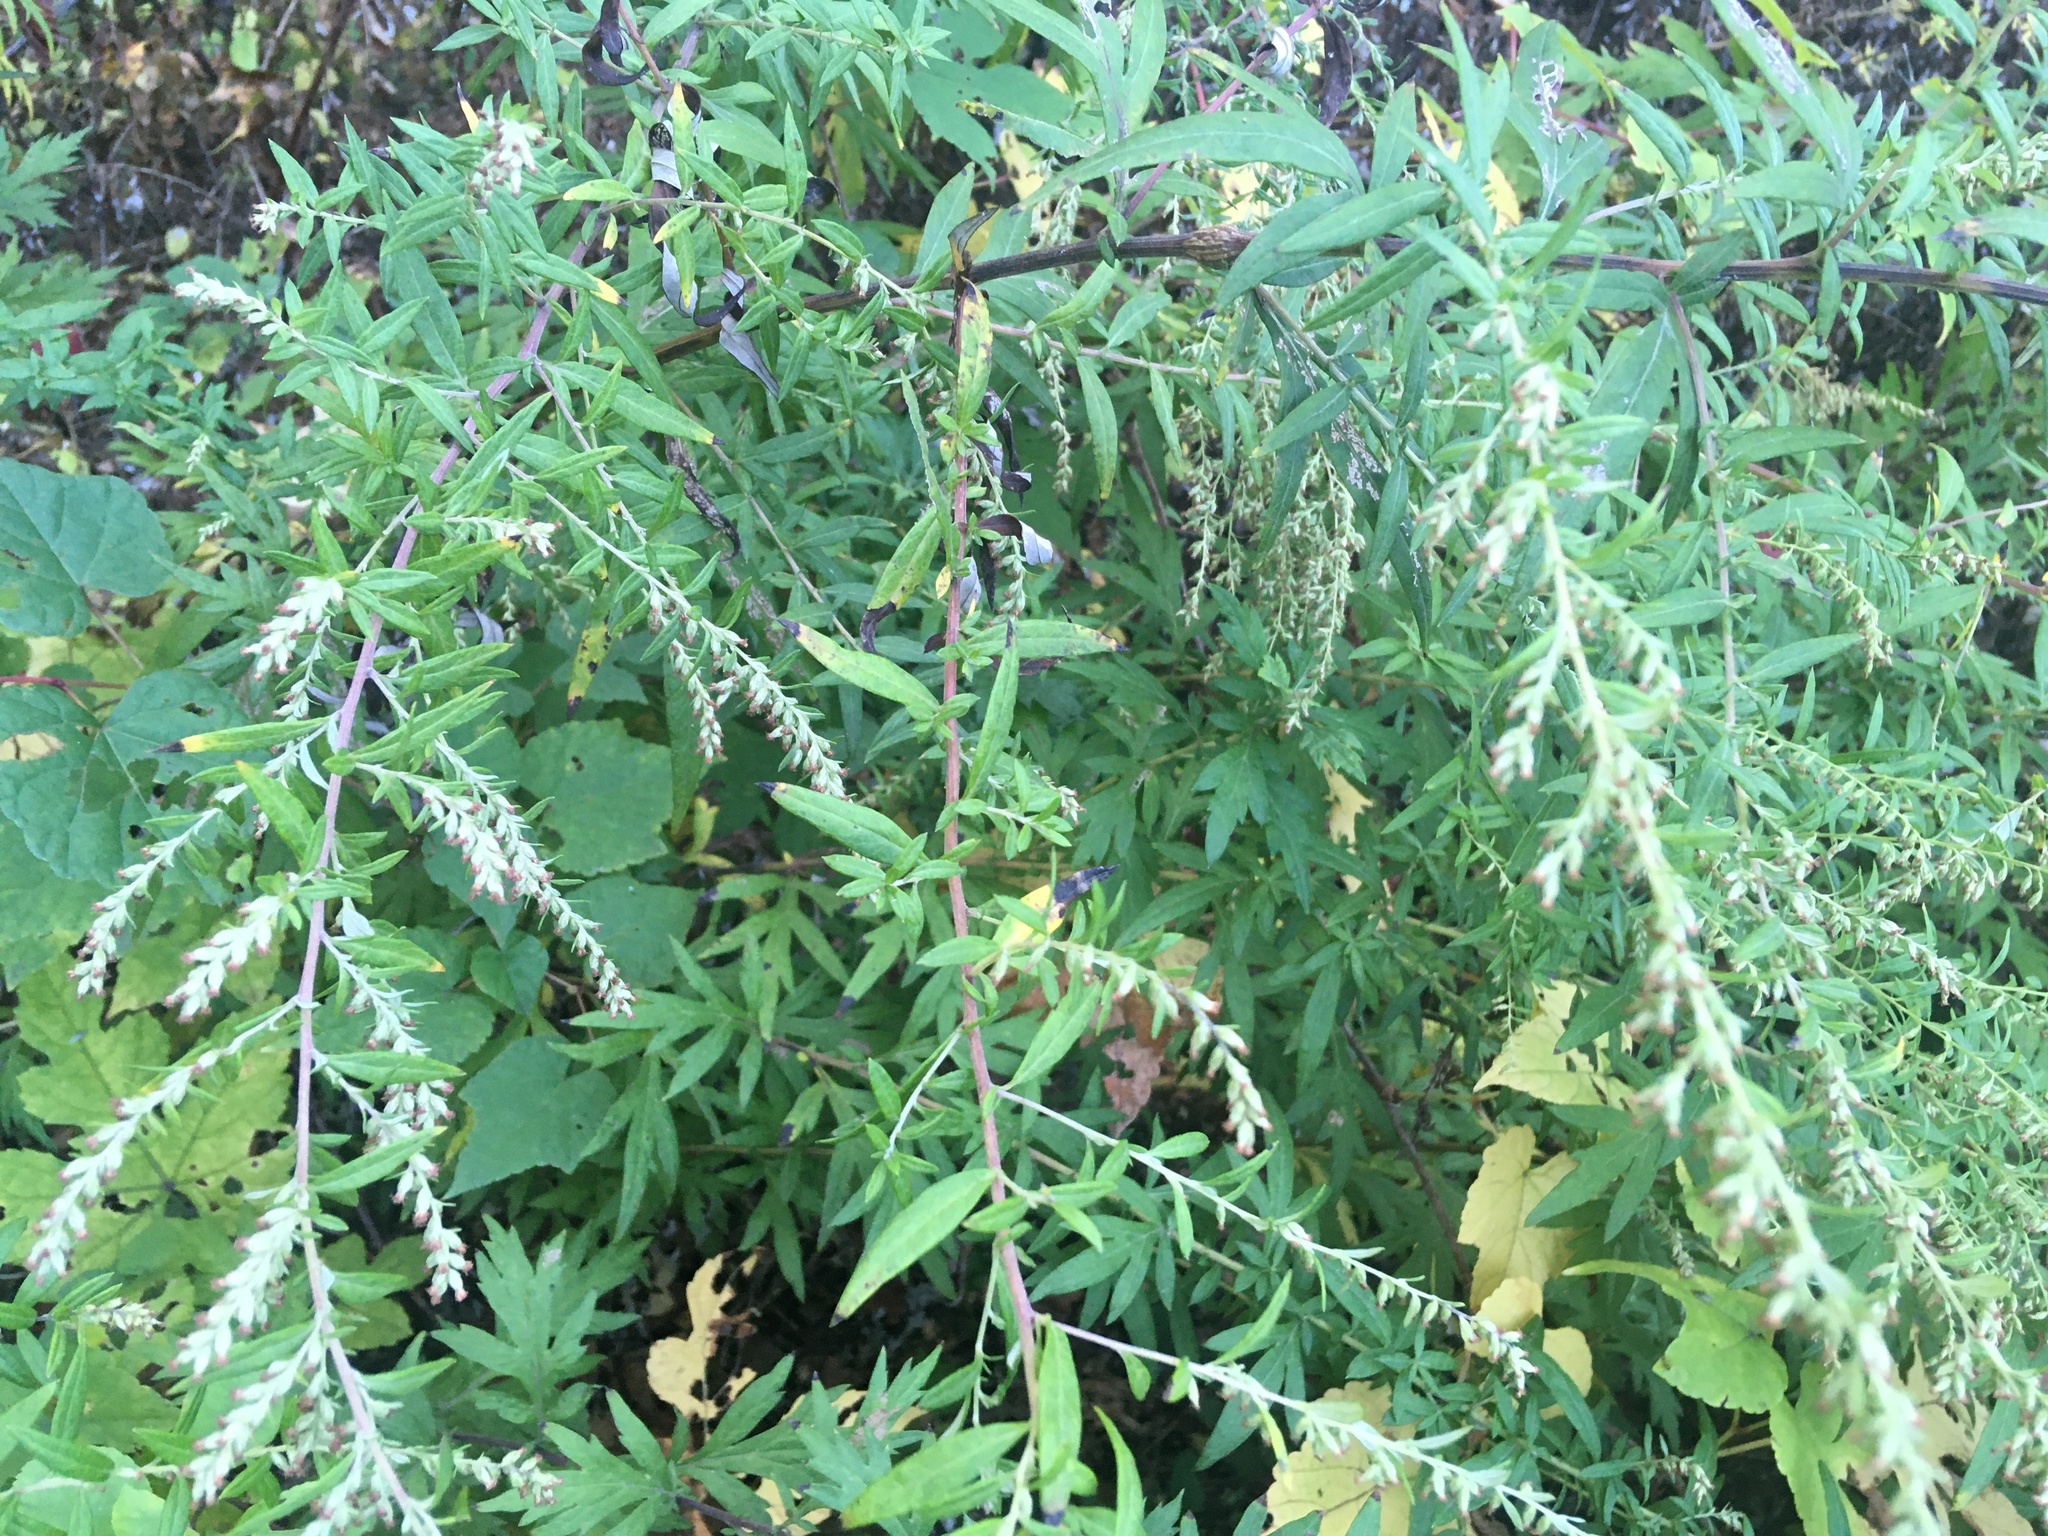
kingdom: Plantae
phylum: Tracheophyta
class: Magnoliopsida
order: Asterales
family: Asteraceae
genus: Artemisia
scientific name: Artemisia vulgaris
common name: Mugwort
